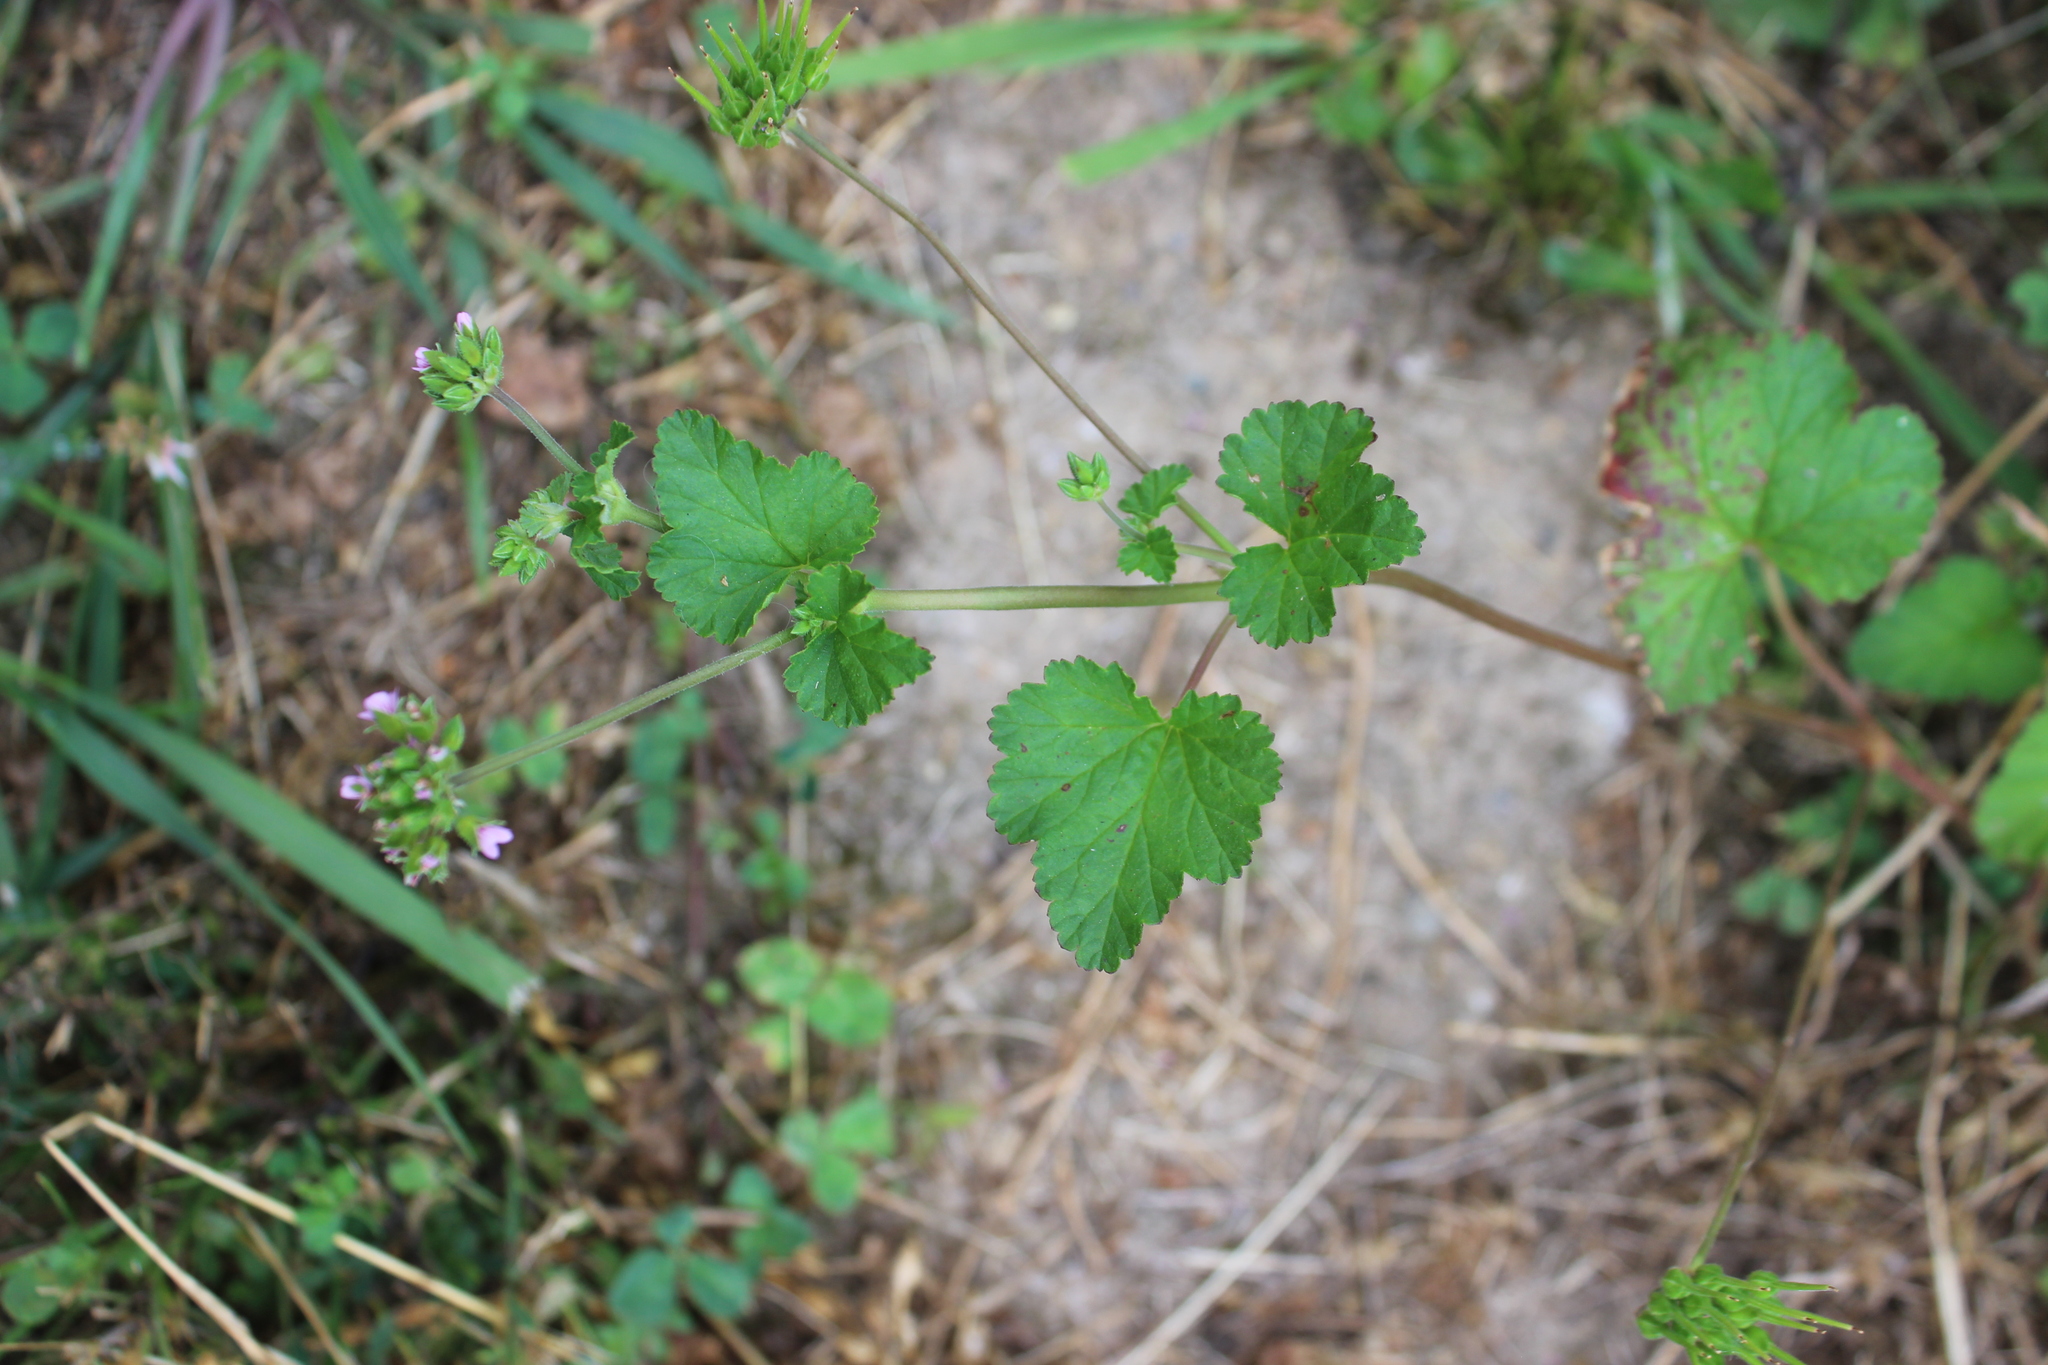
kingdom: Plantae
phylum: Tracheophyta
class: Magnoliopsida
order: Geraniales
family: Geraniaceae
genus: Pelargonium
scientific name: Pelargonium inodorum
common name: Kopata geranium
